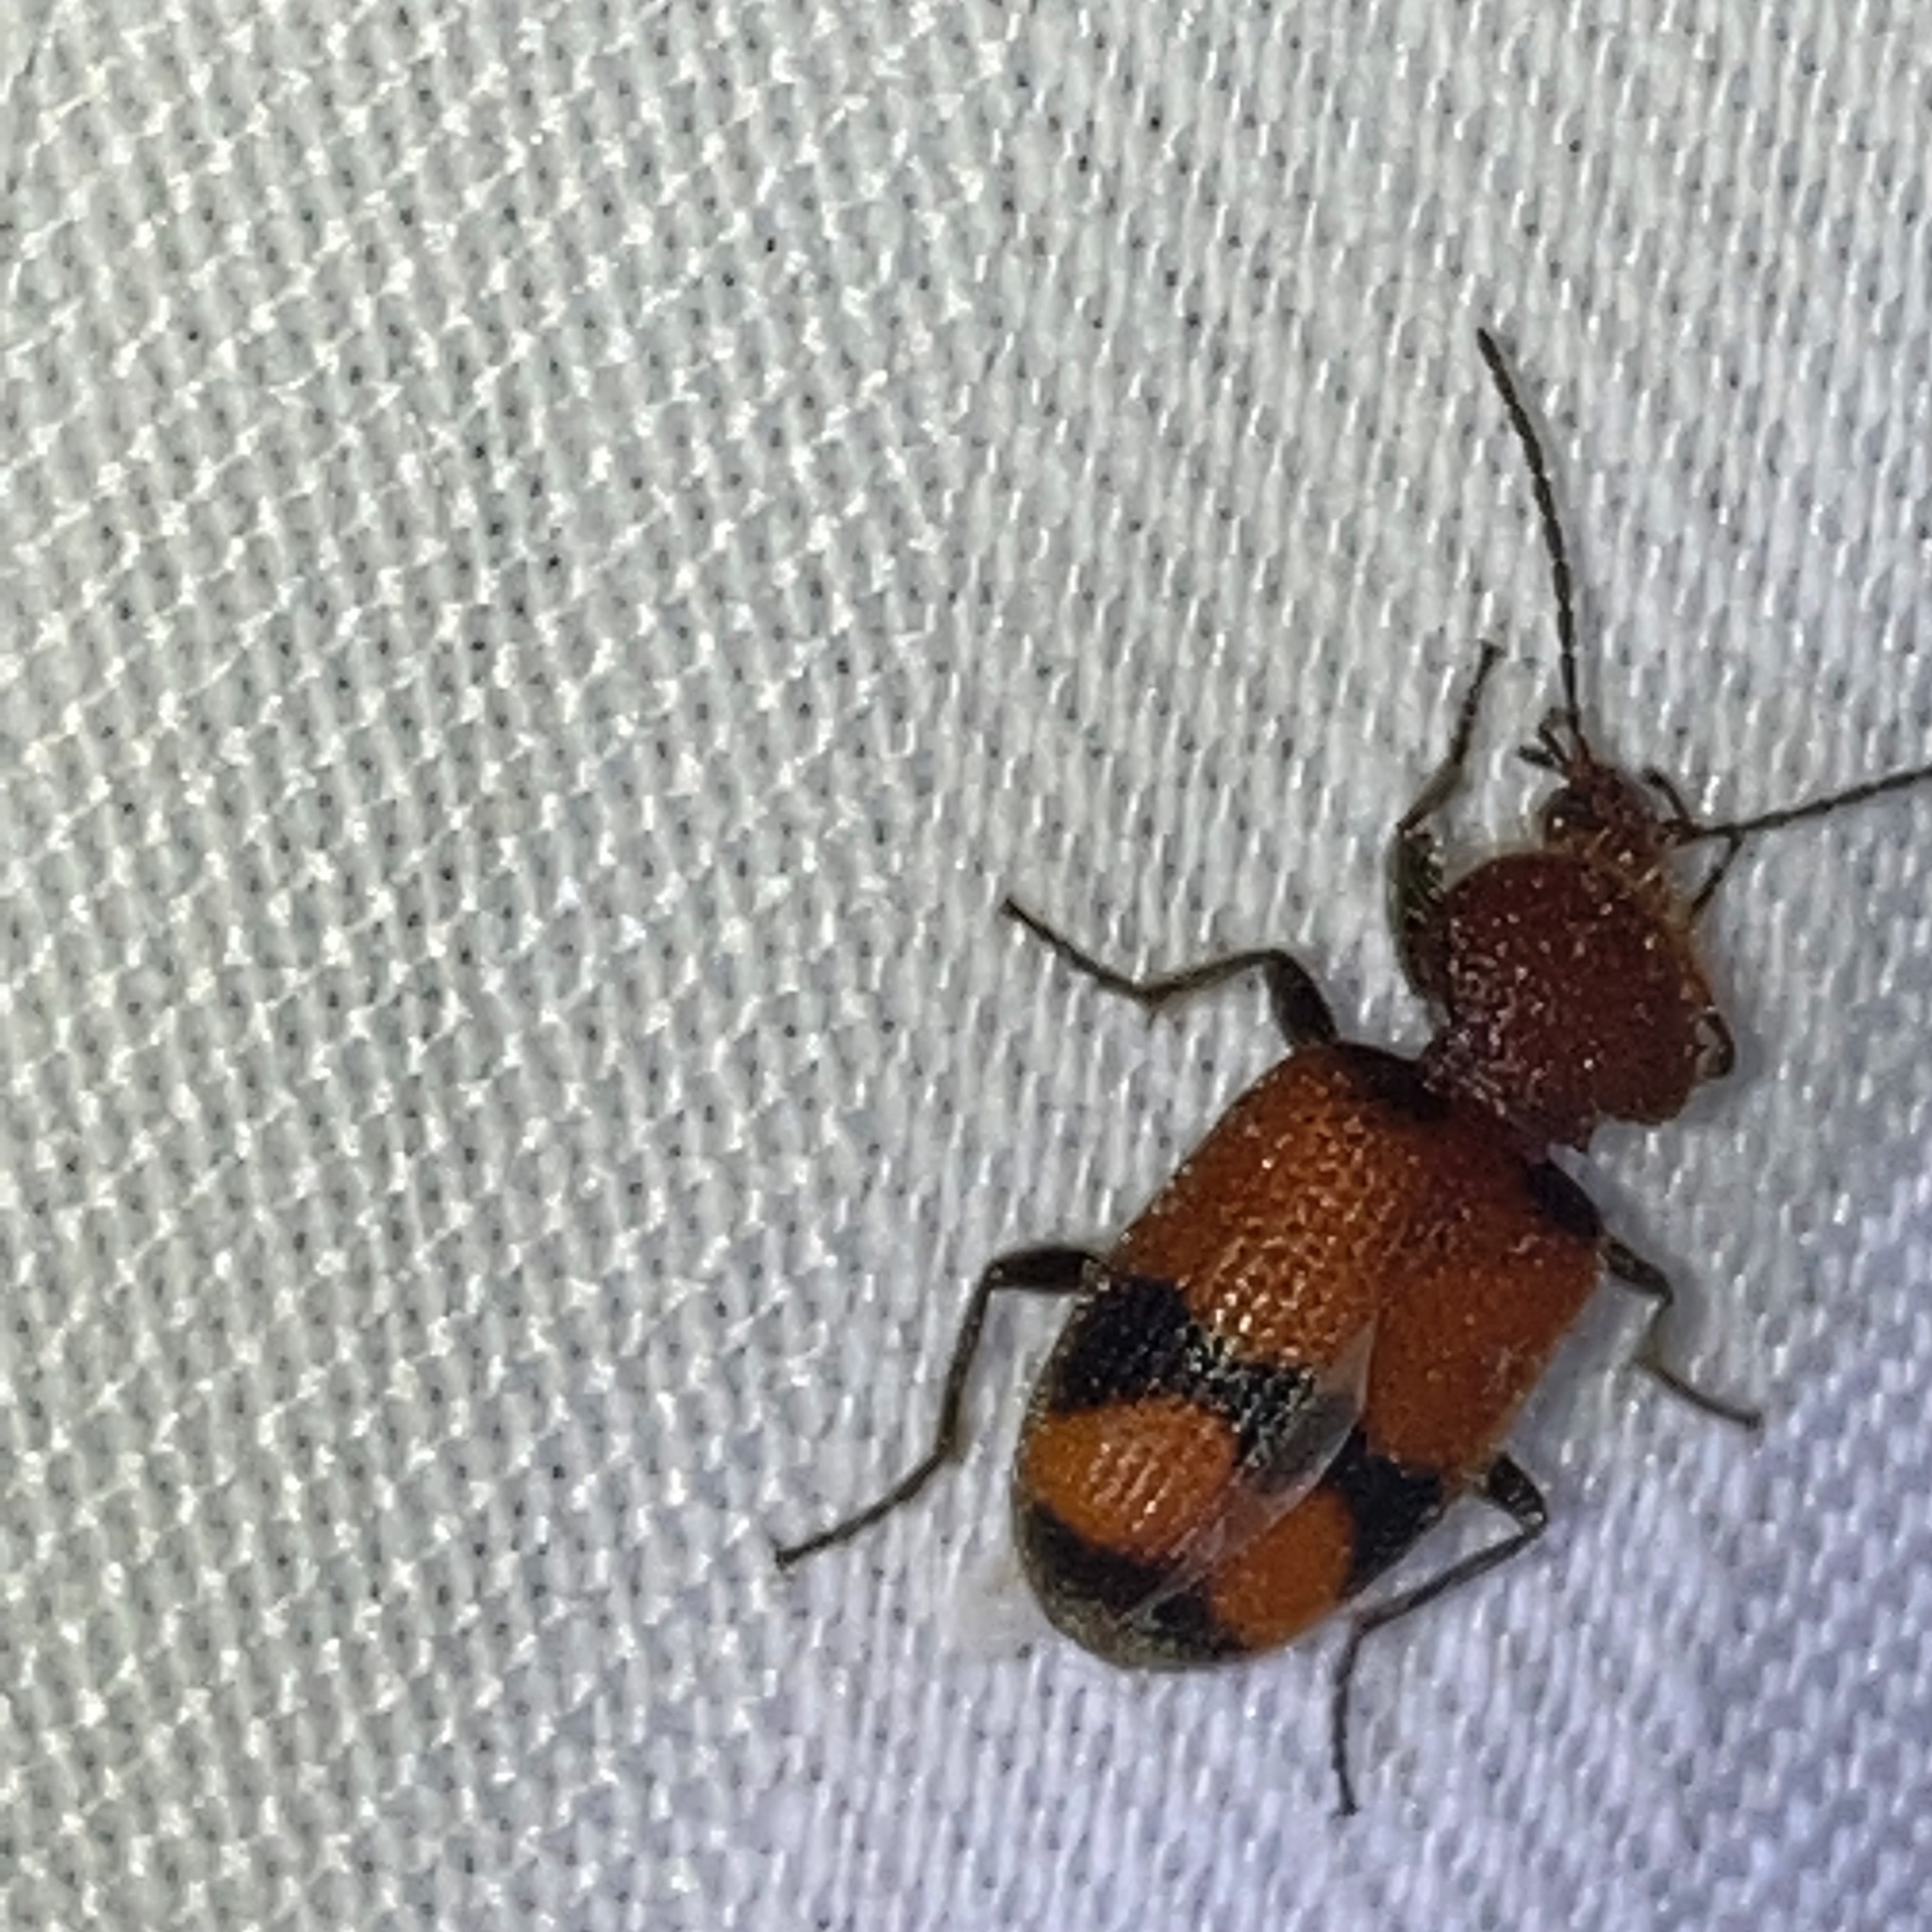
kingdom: Animalia
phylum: Arthropoda
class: Insecta
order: Coleoptera
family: Carabidae
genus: Panagaeus
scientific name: Panagaeus fasciatus
